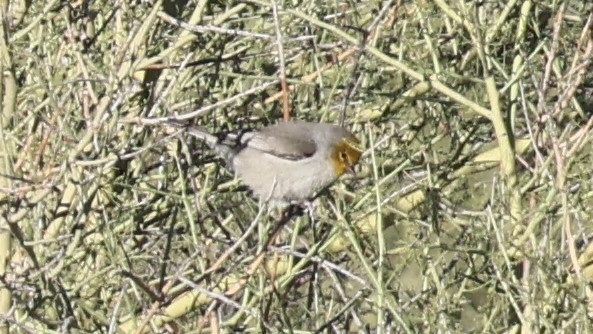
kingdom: Animalia
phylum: Chordata
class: Aves
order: Passeriformes
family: Remizidae
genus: Auriparus
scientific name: Auriparus flaviceps
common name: Verdin
